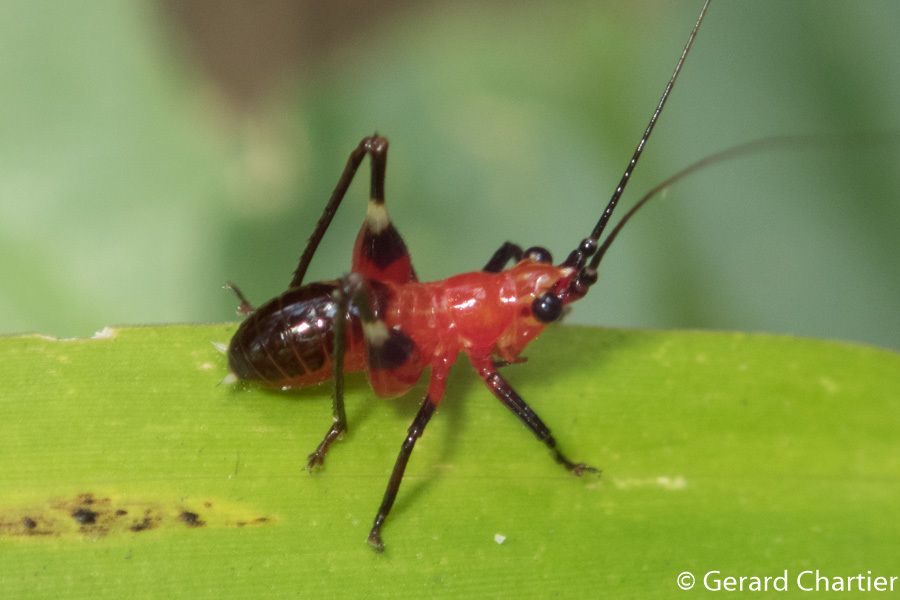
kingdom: Animalia
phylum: Arthropoda
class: Insecta
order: Orthoptera
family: Tettigoniidae
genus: Conocephalus
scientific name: Conocephalus melaenus
